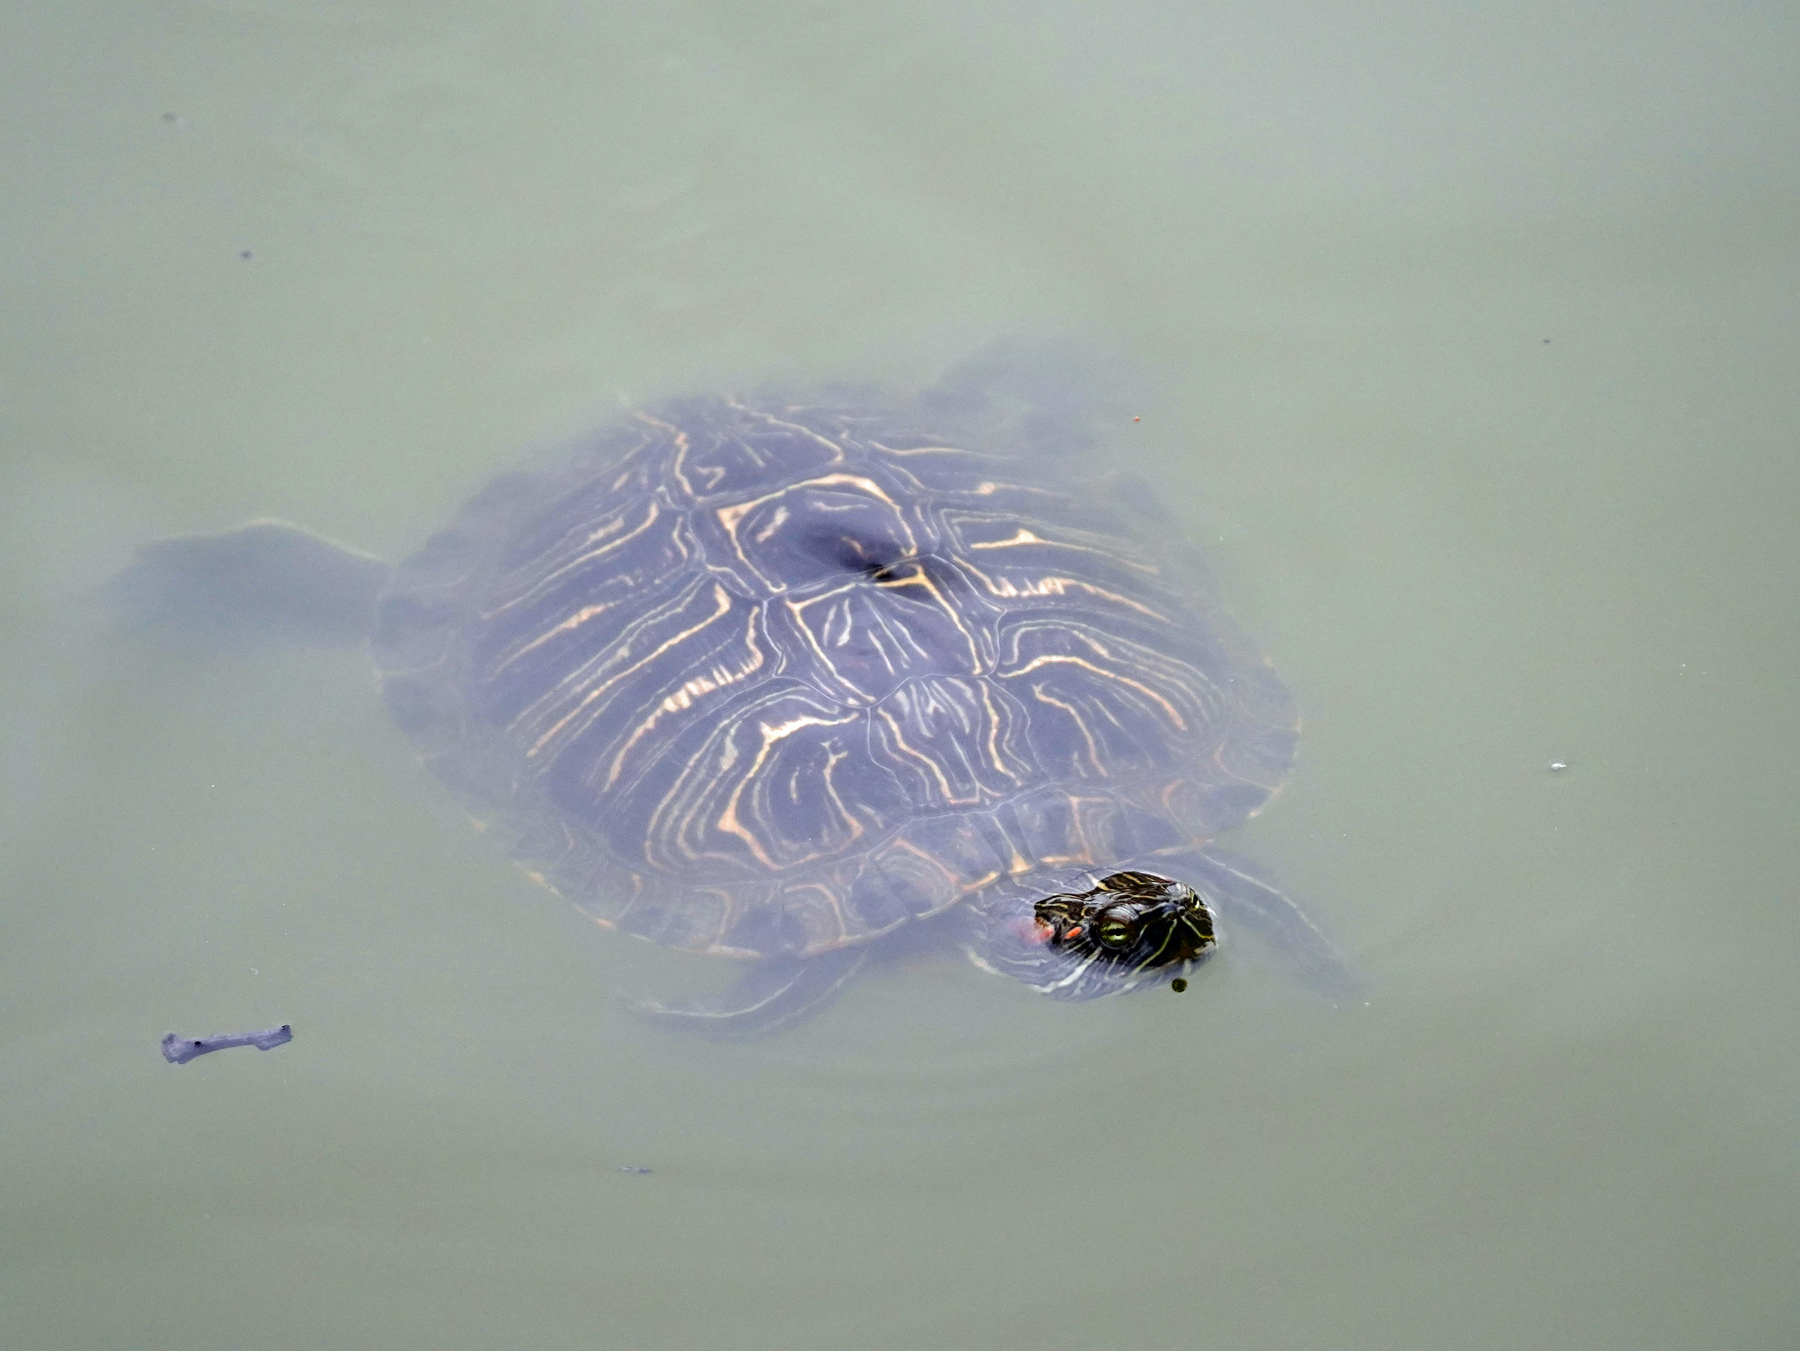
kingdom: Animalia
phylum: Chordata
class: Testudines
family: Emydidae
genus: Trachemys
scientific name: Trachemys scripta
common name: Slider
